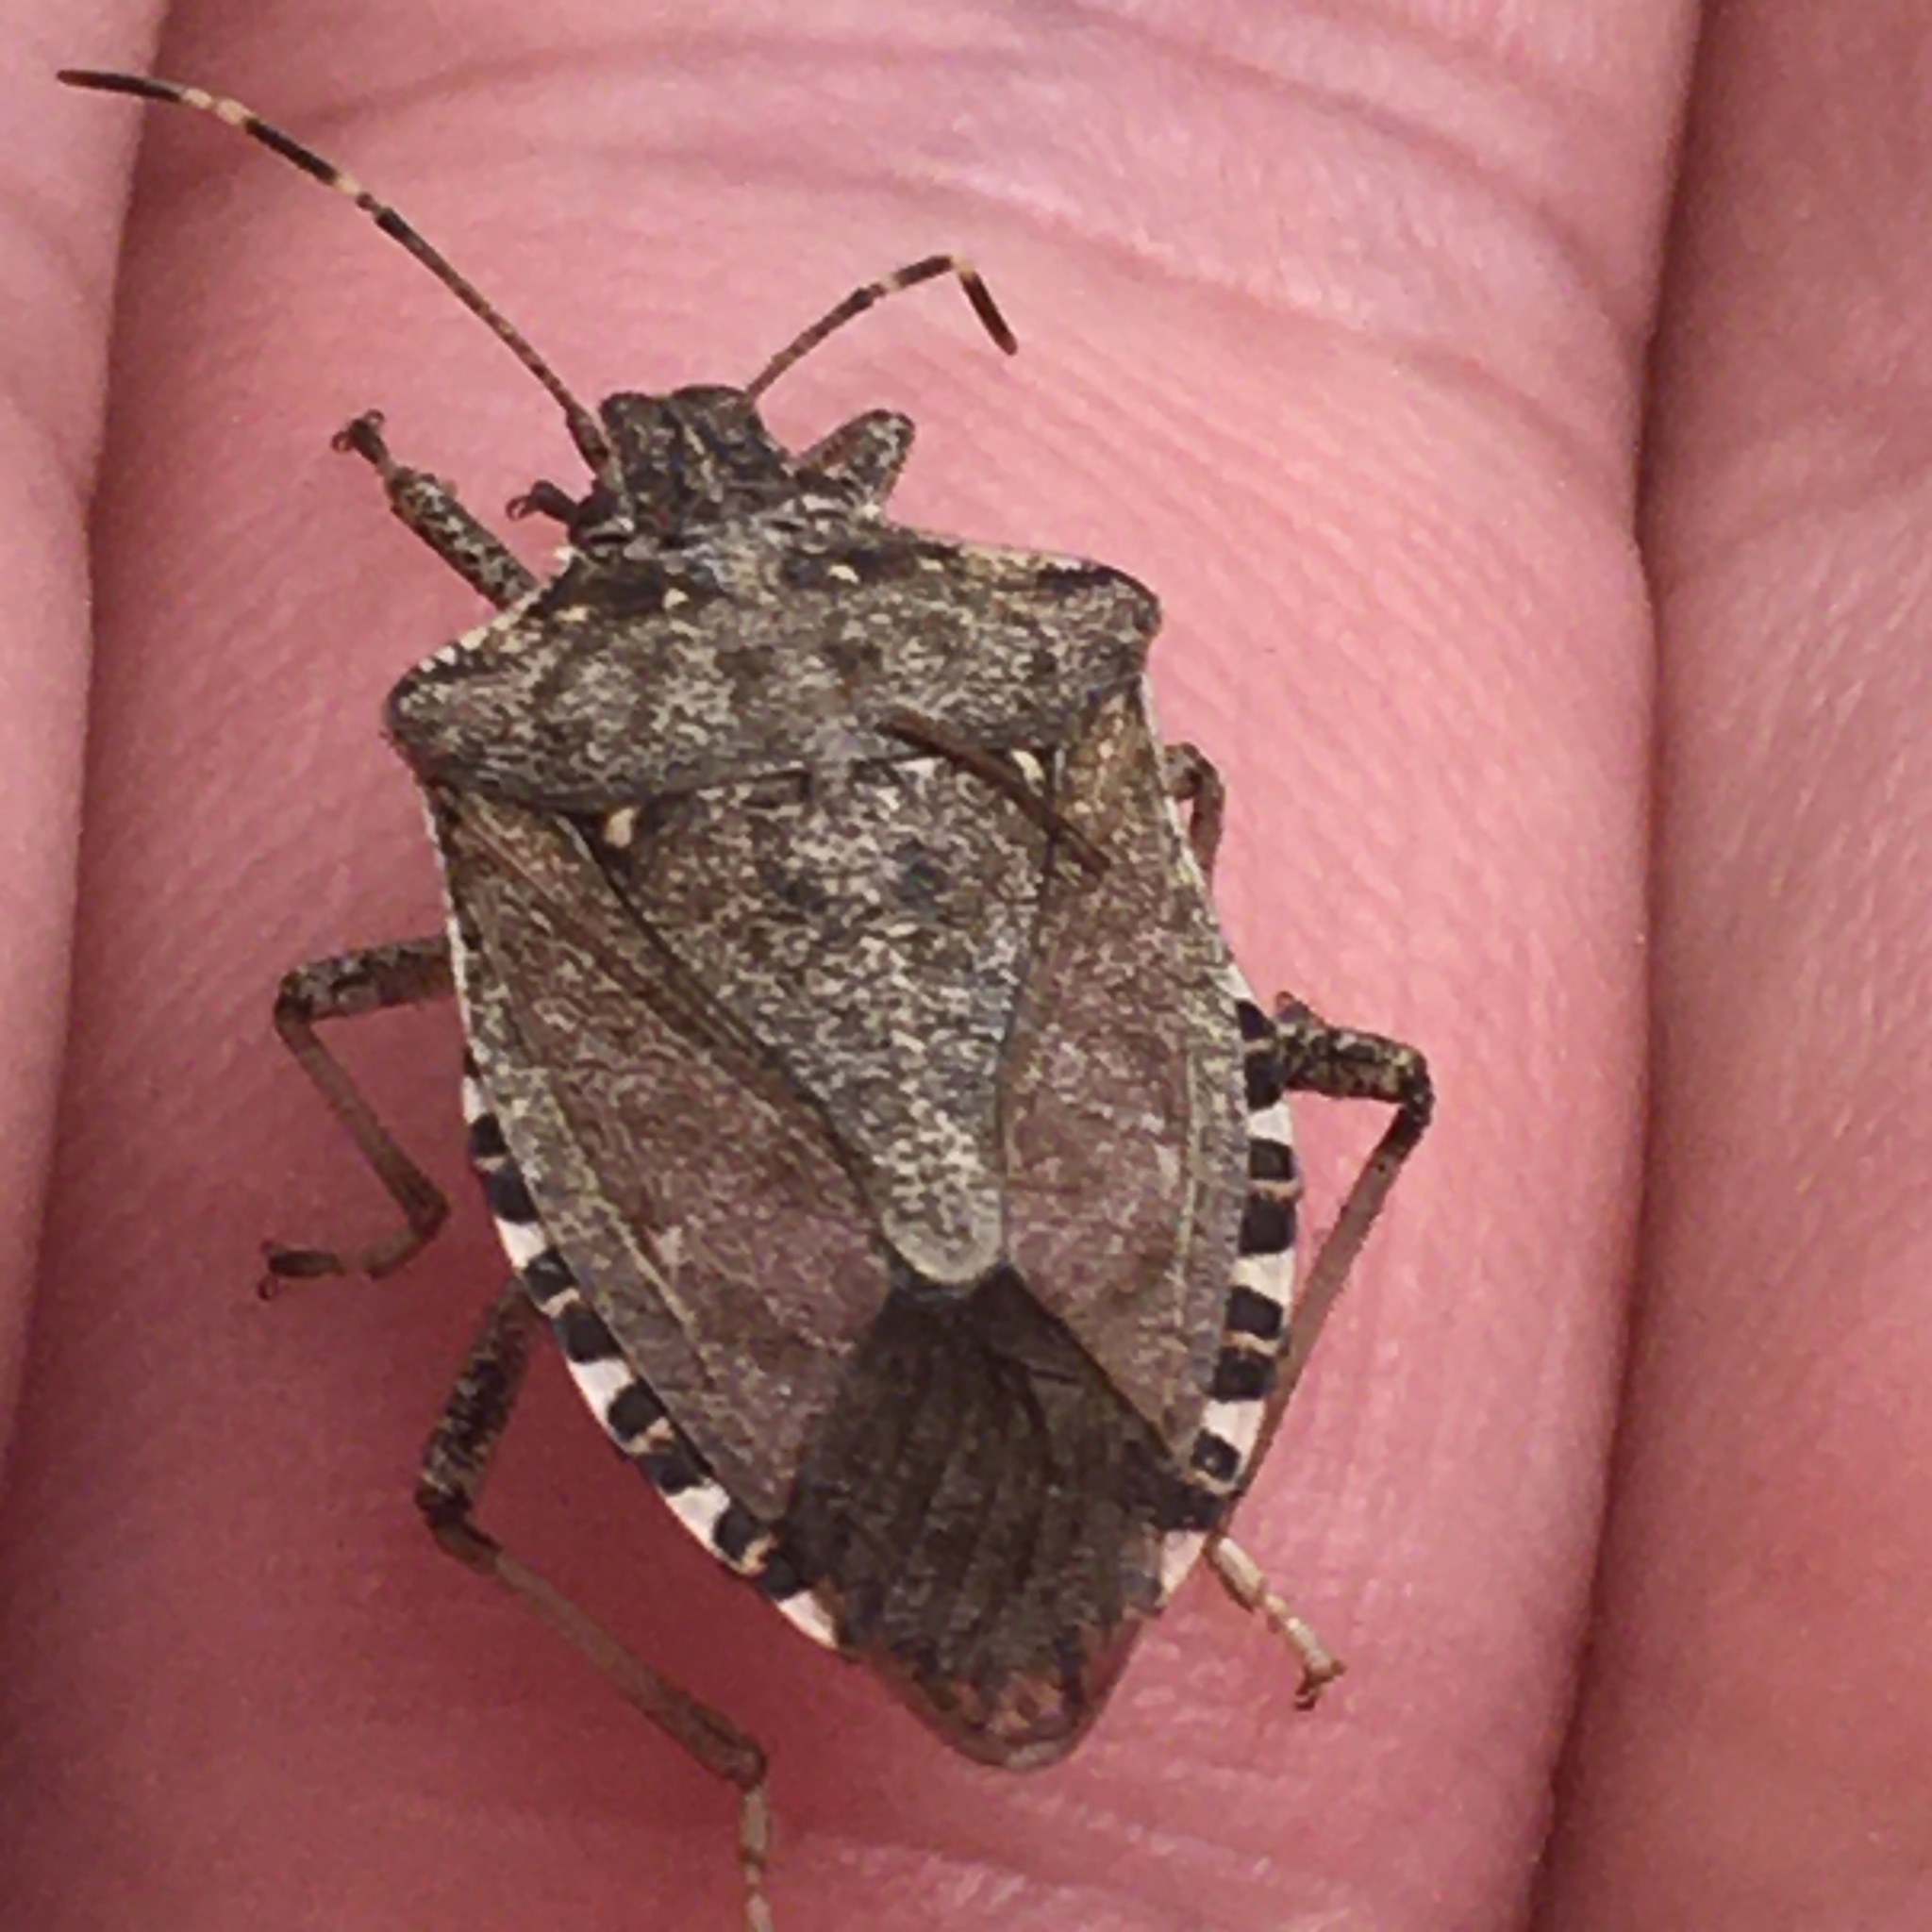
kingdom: Animalia
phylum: Arthropoda
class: Insecta
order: Hemiptera
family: Pentatomidae
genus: Halyomorpha
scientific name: Halyomorpha halys
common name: Brown marmorated stink bug
